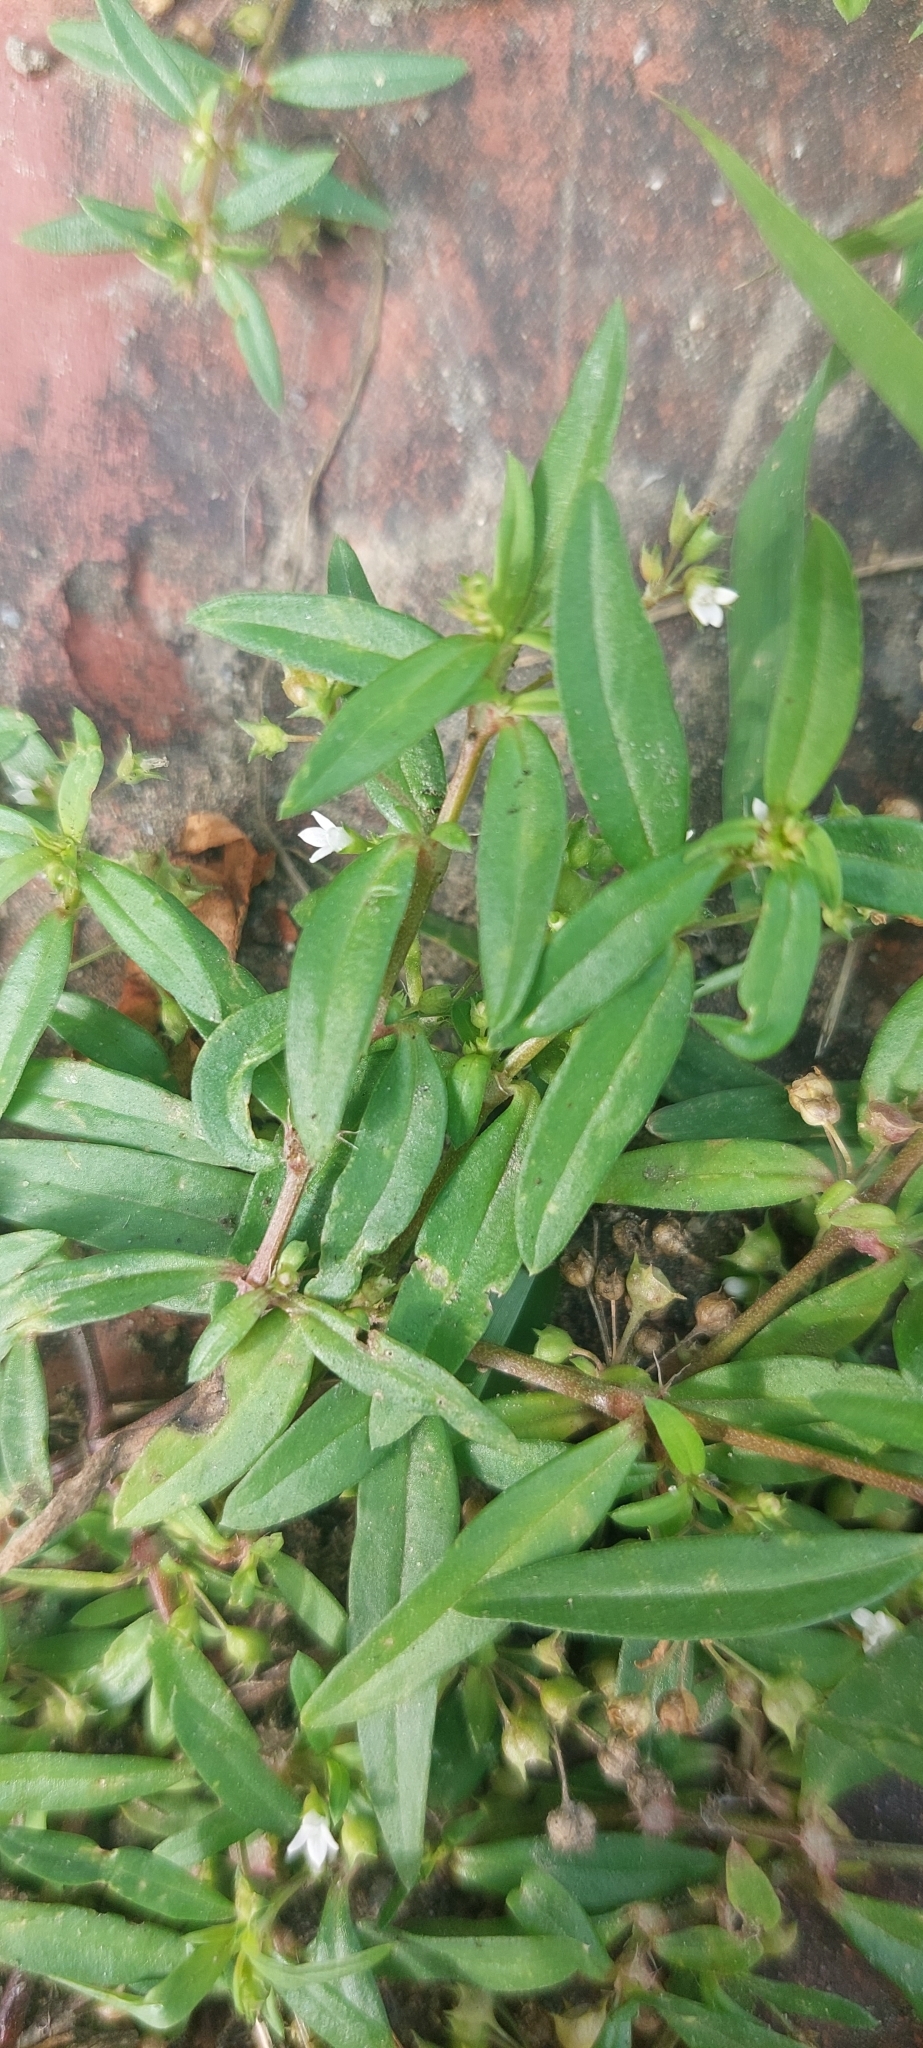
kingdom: Plantae
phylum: Tracheophyta
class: Magnoliopsida
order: Gentianales
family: Rubiaceae
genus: Oldenlandia
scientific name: Oldenlandia corymbosa
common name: Flat-top mille graines
